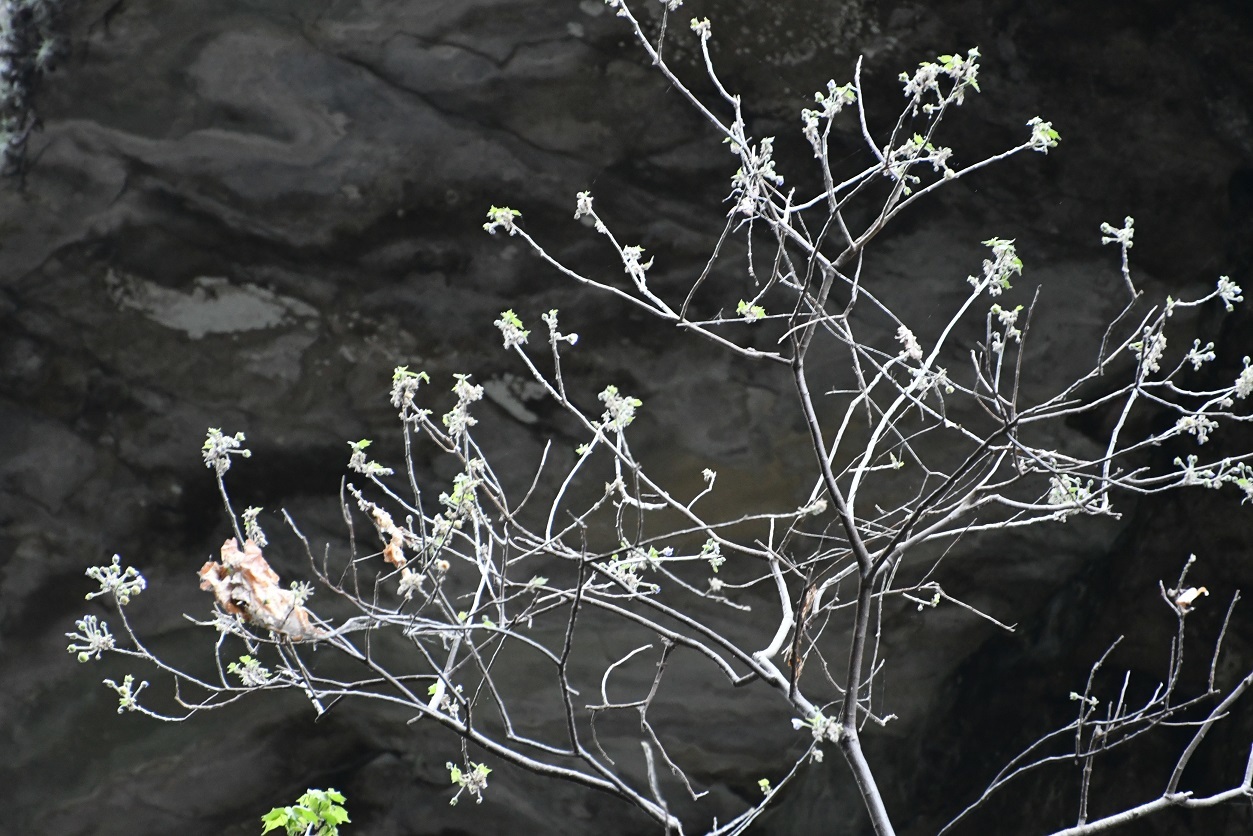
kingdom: Plantae
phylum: Tracheophyta
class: Magnoliopsida
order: Malvales
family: Malvaceae
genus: Robinsonella
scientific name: Robinsonella brevituba
